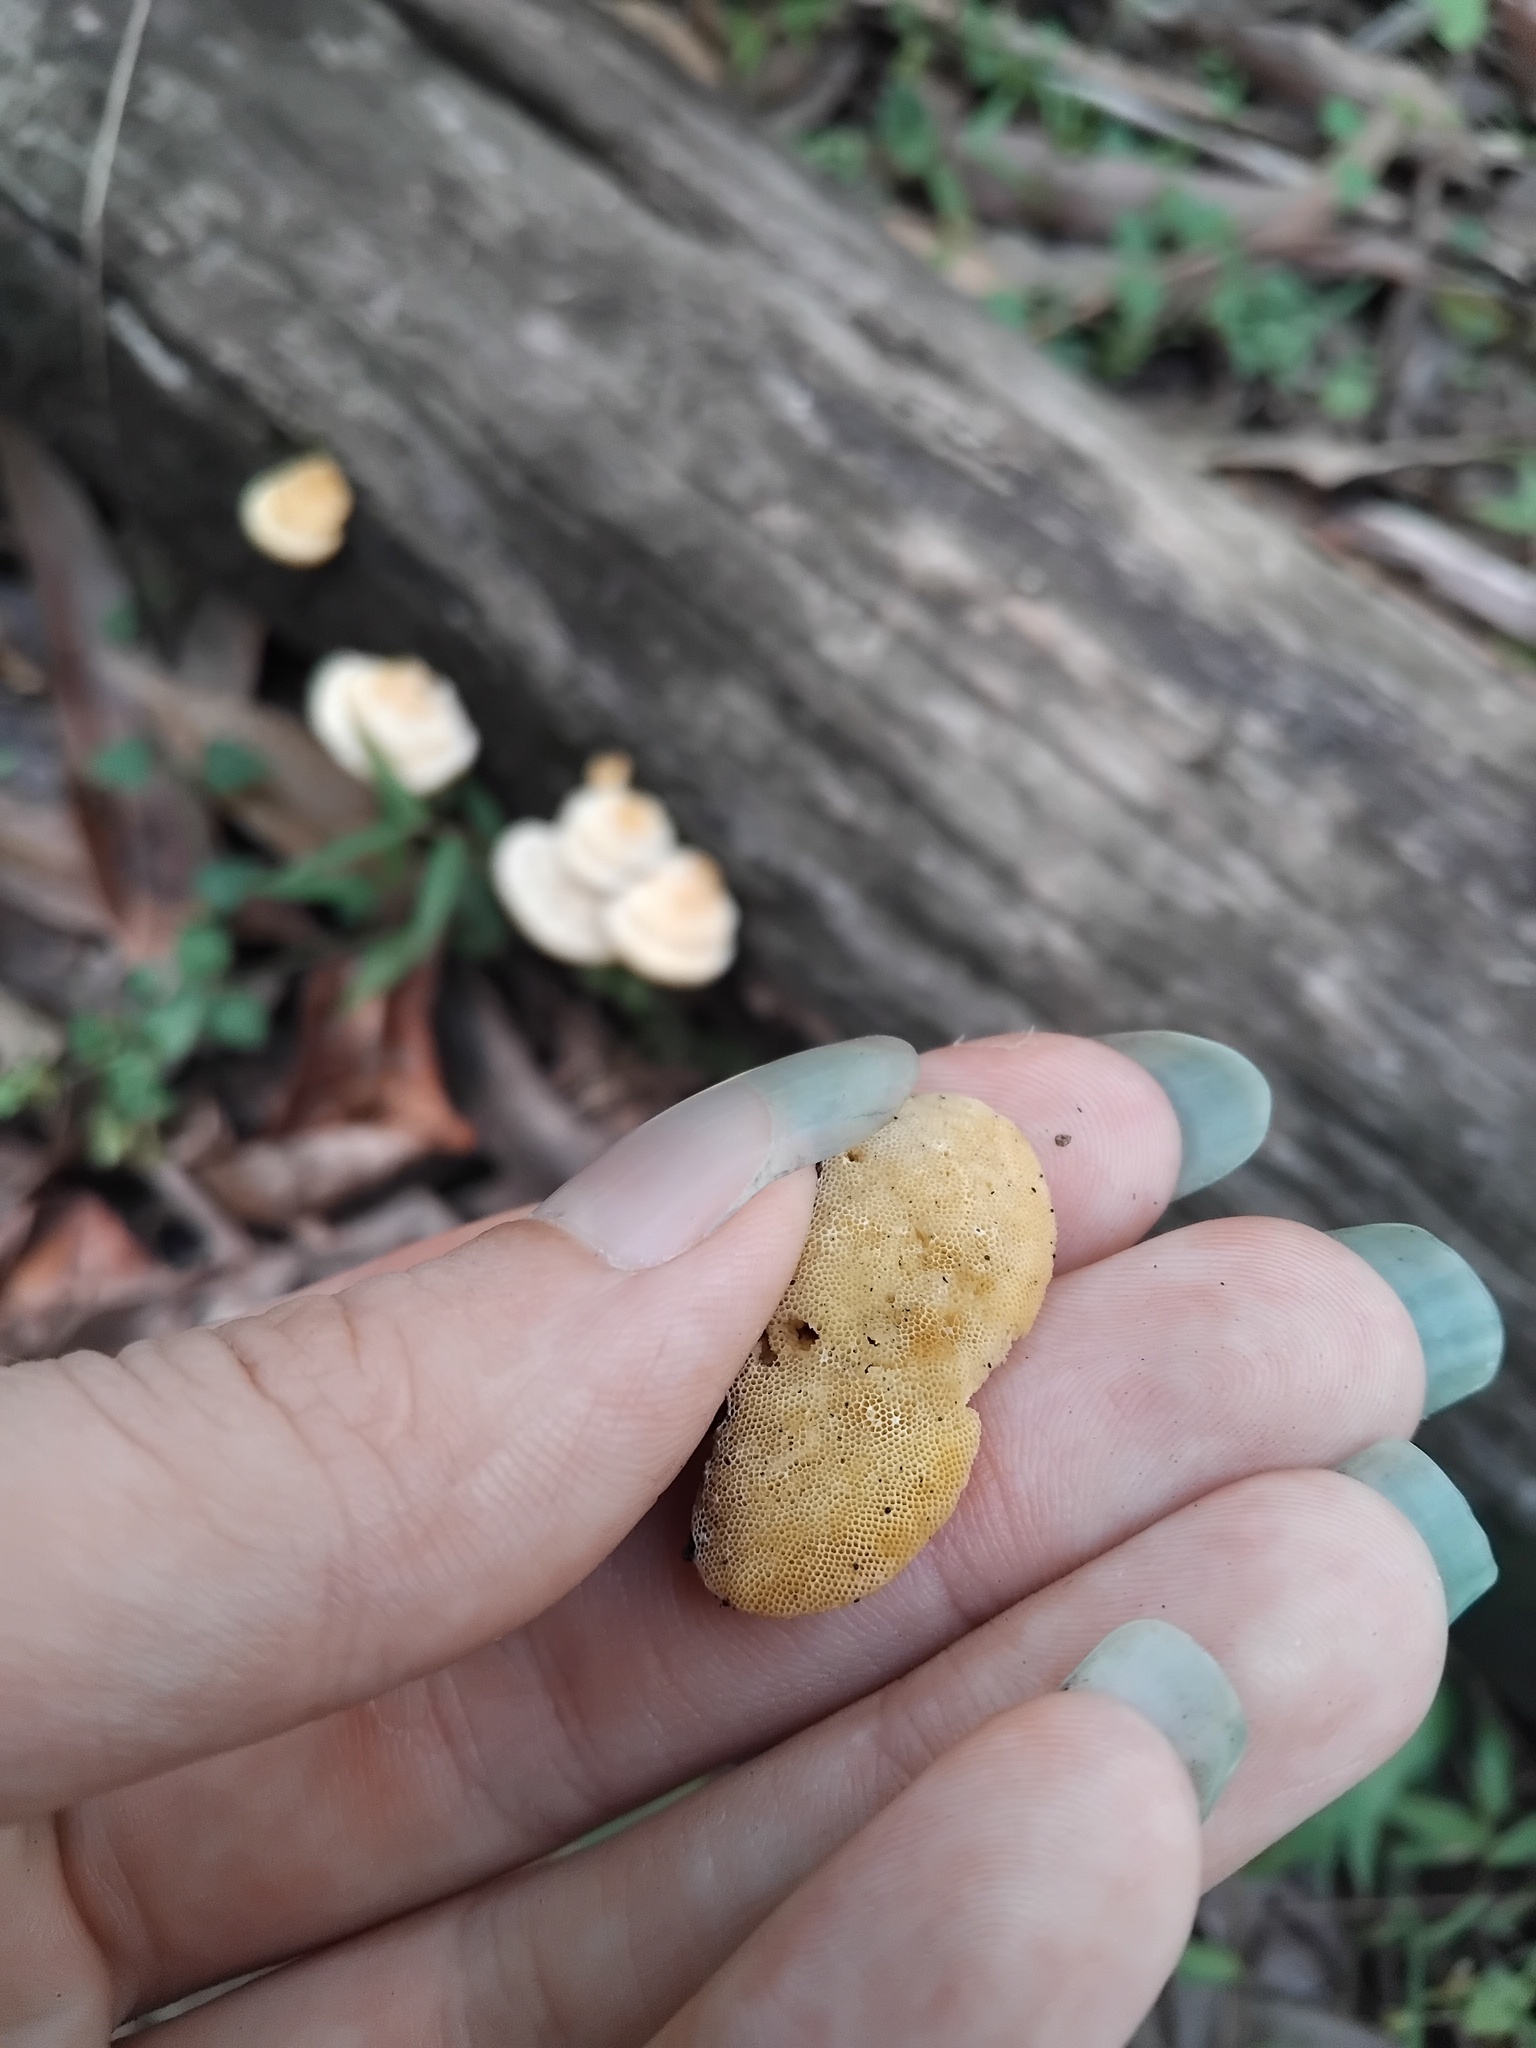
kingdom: Fungi
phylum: Basidiomycota
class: Agaricomycetes
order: Polyporales
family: Polyporaceae
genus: Truncospora
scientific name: Truncospora ochroleuca
